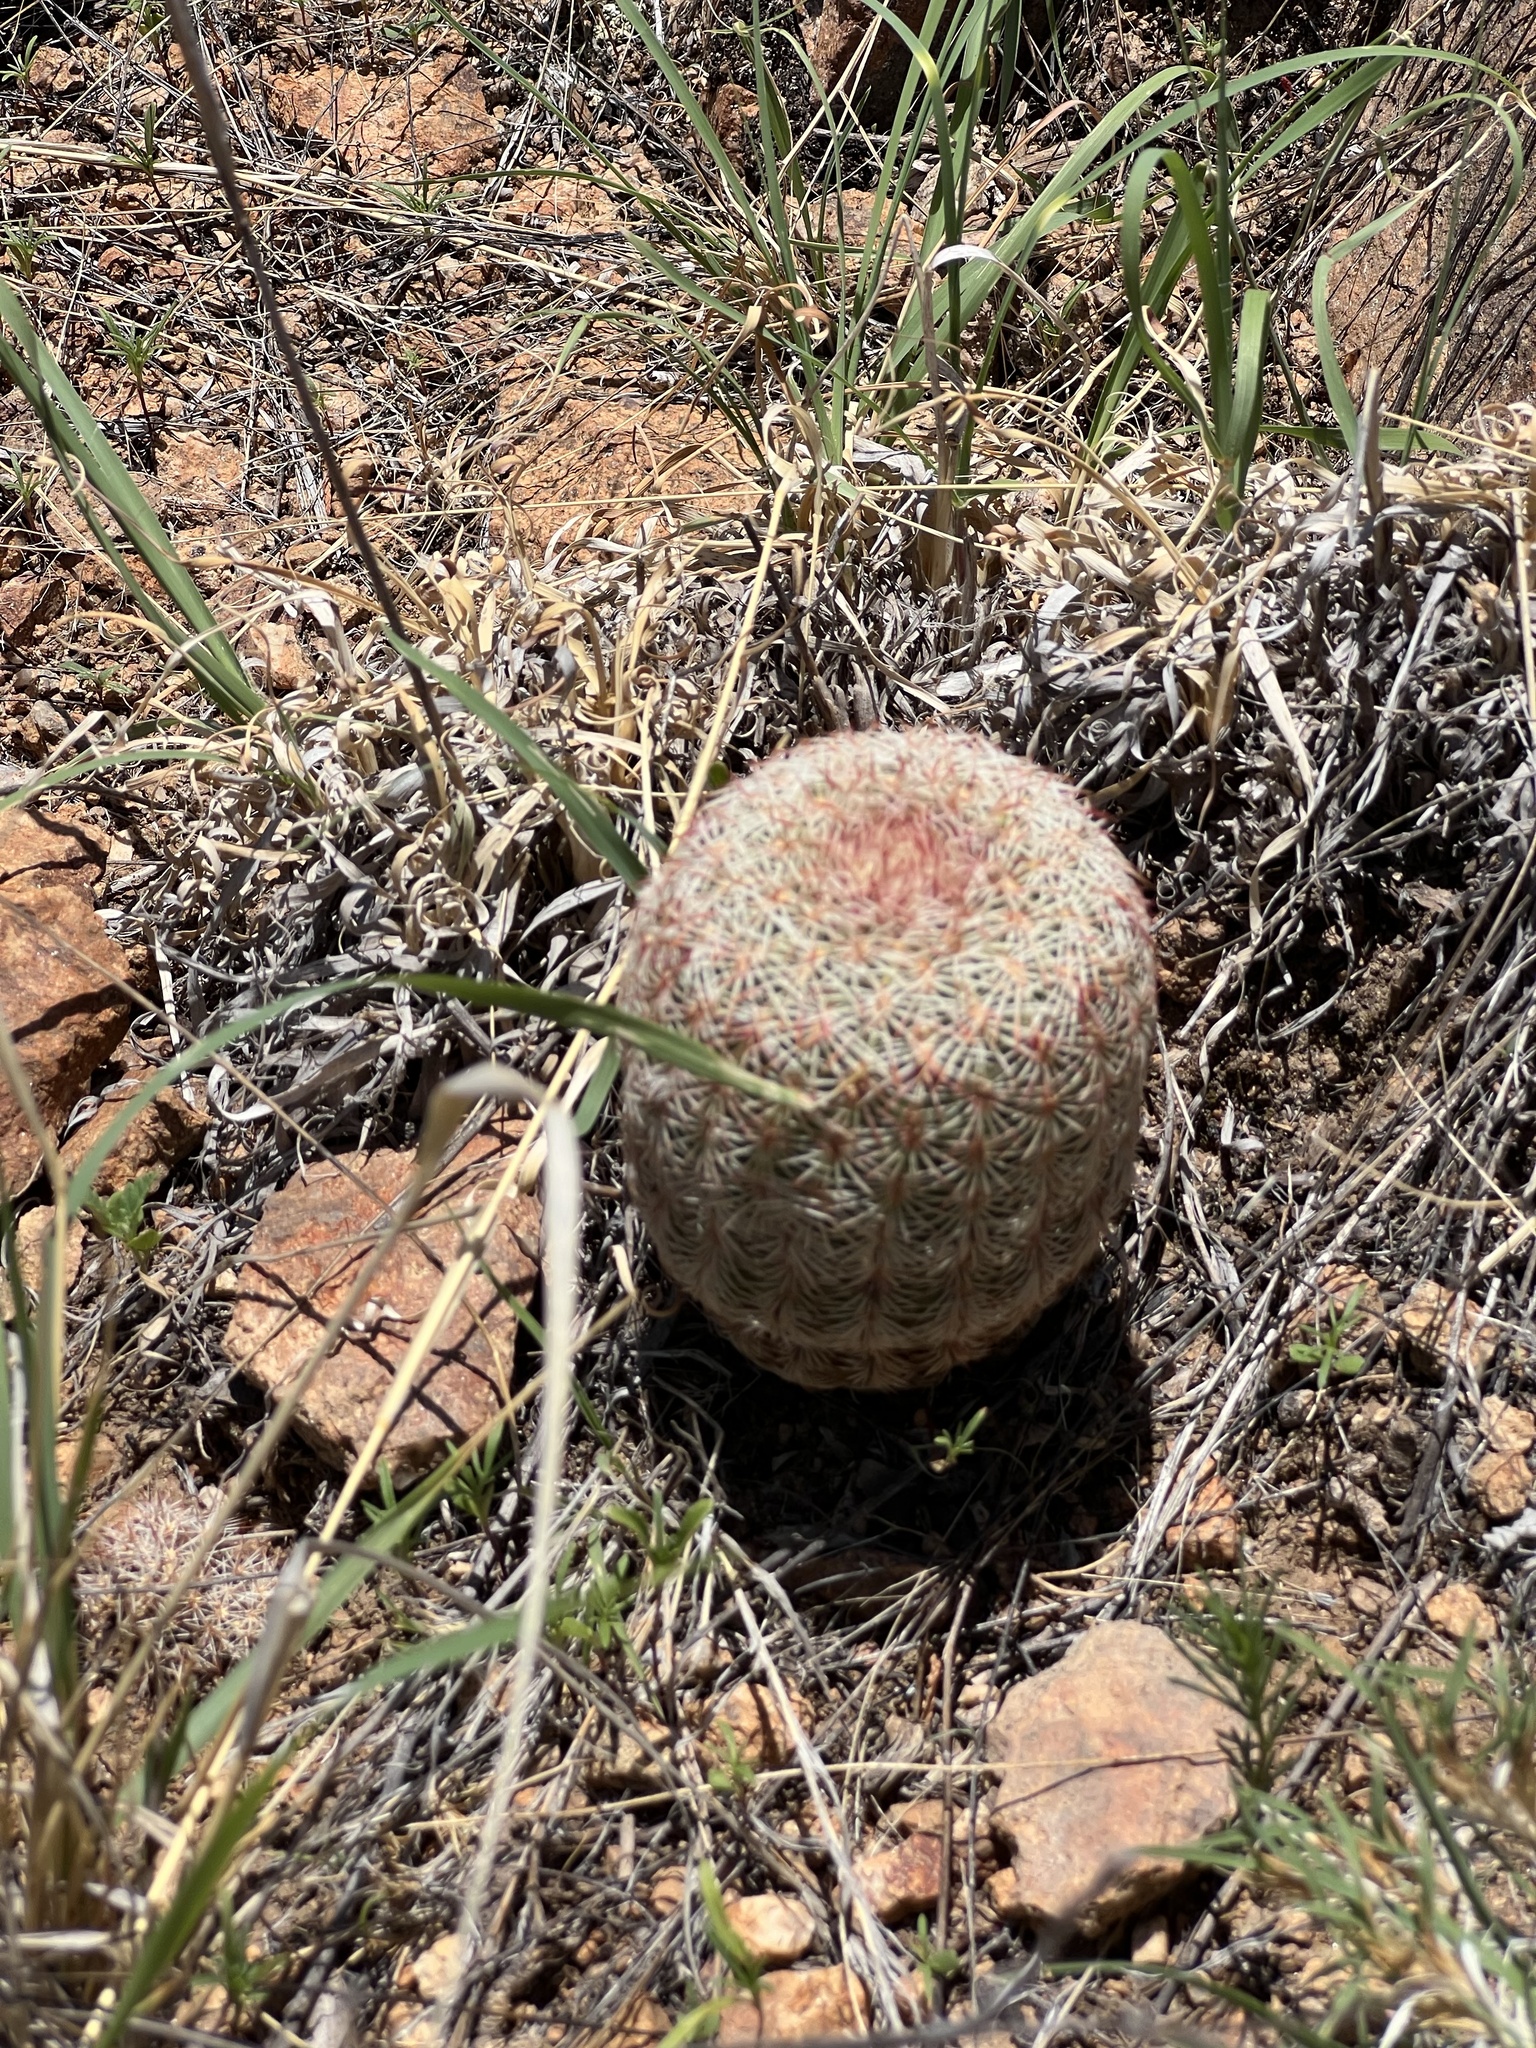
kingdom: Plantae
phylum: Tracheophyta
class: Magnoliopsida
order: Caryophyllales
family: Cactaceae
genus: Echinocereus
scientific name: Echinocereus rigidissimus
